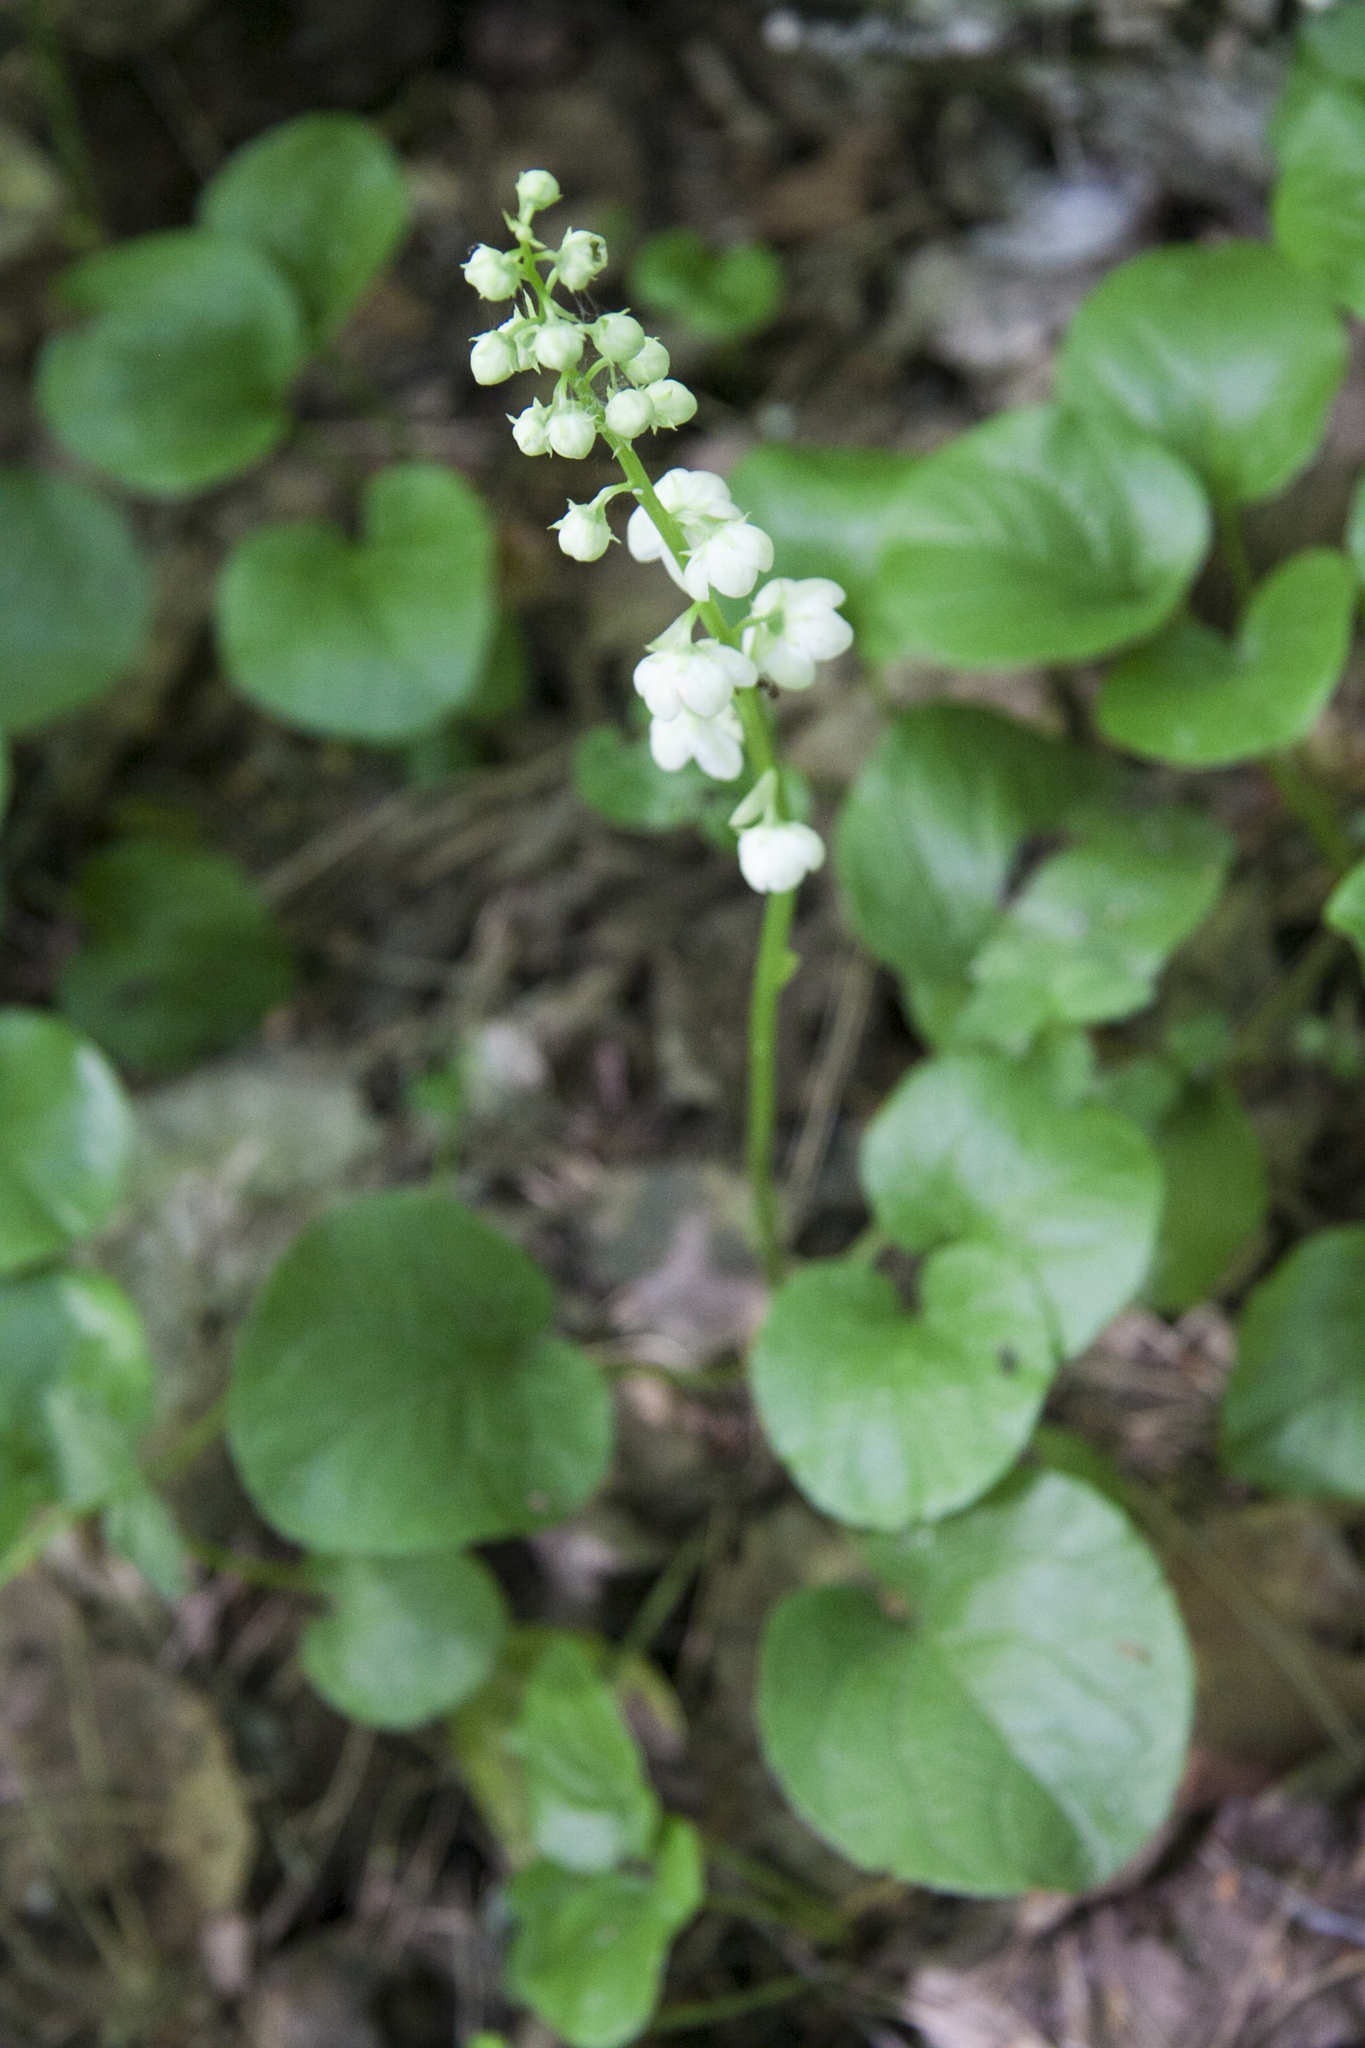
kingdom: Plantae
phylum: Tracheophyta
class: Magnoliopsida
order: Ericales
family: Ericaceae
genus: Pyrola
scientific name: Pyrola rotundifolia
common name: Round-leaved wintergreen
